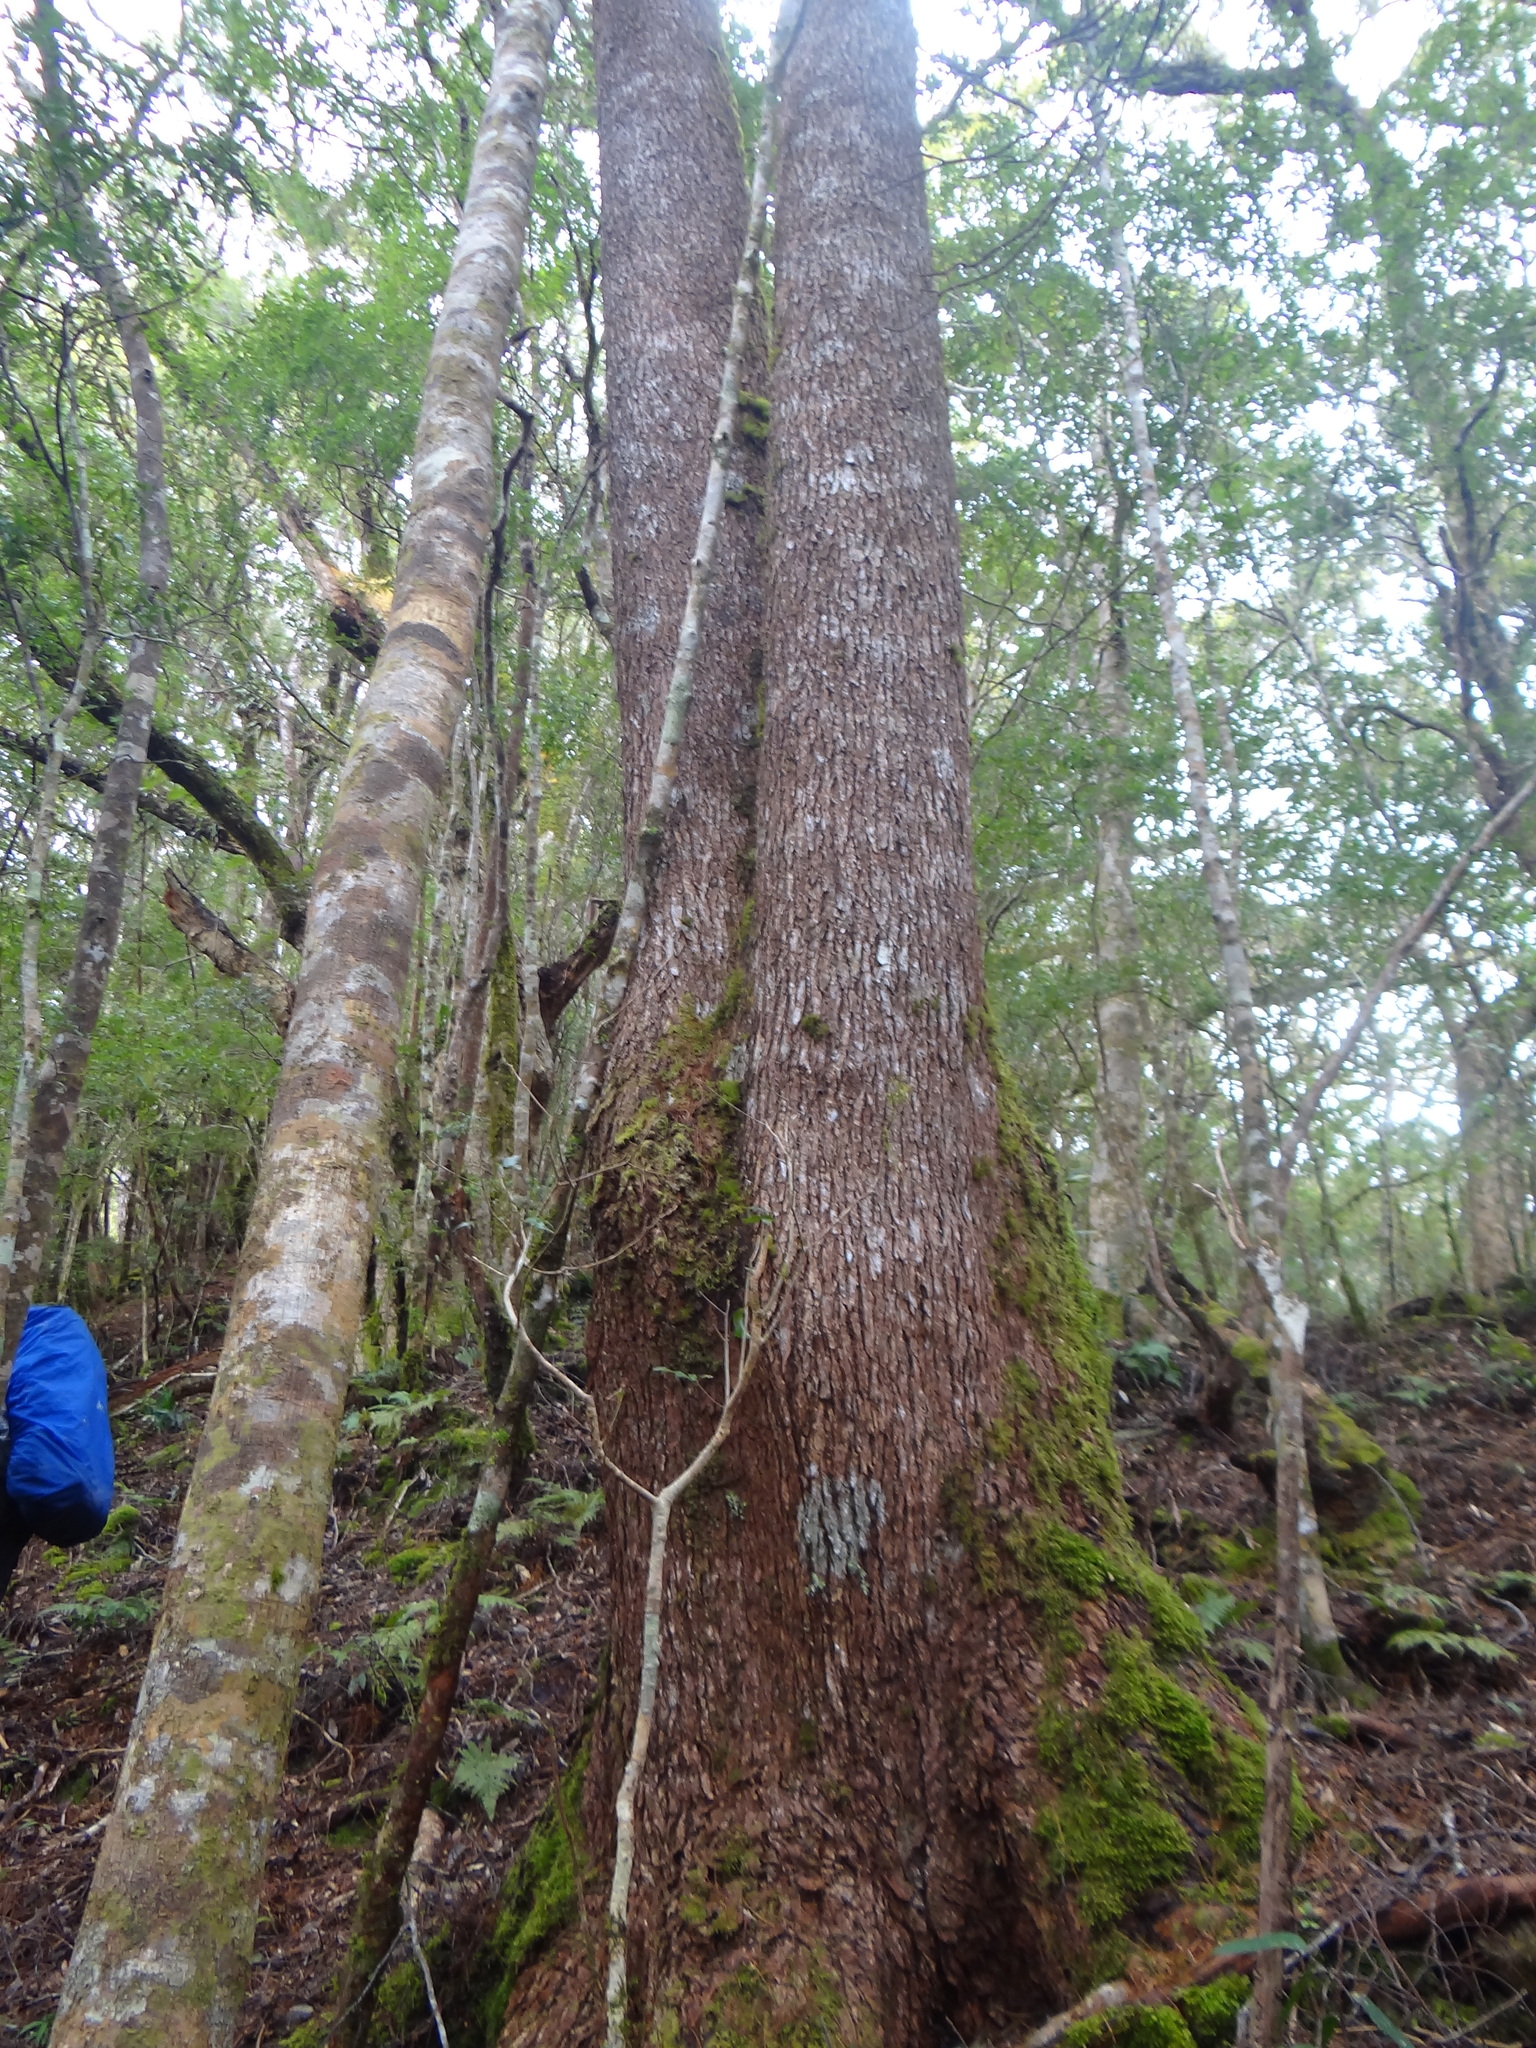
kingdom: Plantae
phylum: Tracheophyta
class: Pinopsida
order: Pinales
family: Pinaceae
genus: Pseudotsuga
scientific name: Pseudotsuga sinensis
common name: Chinese douglas-fir
